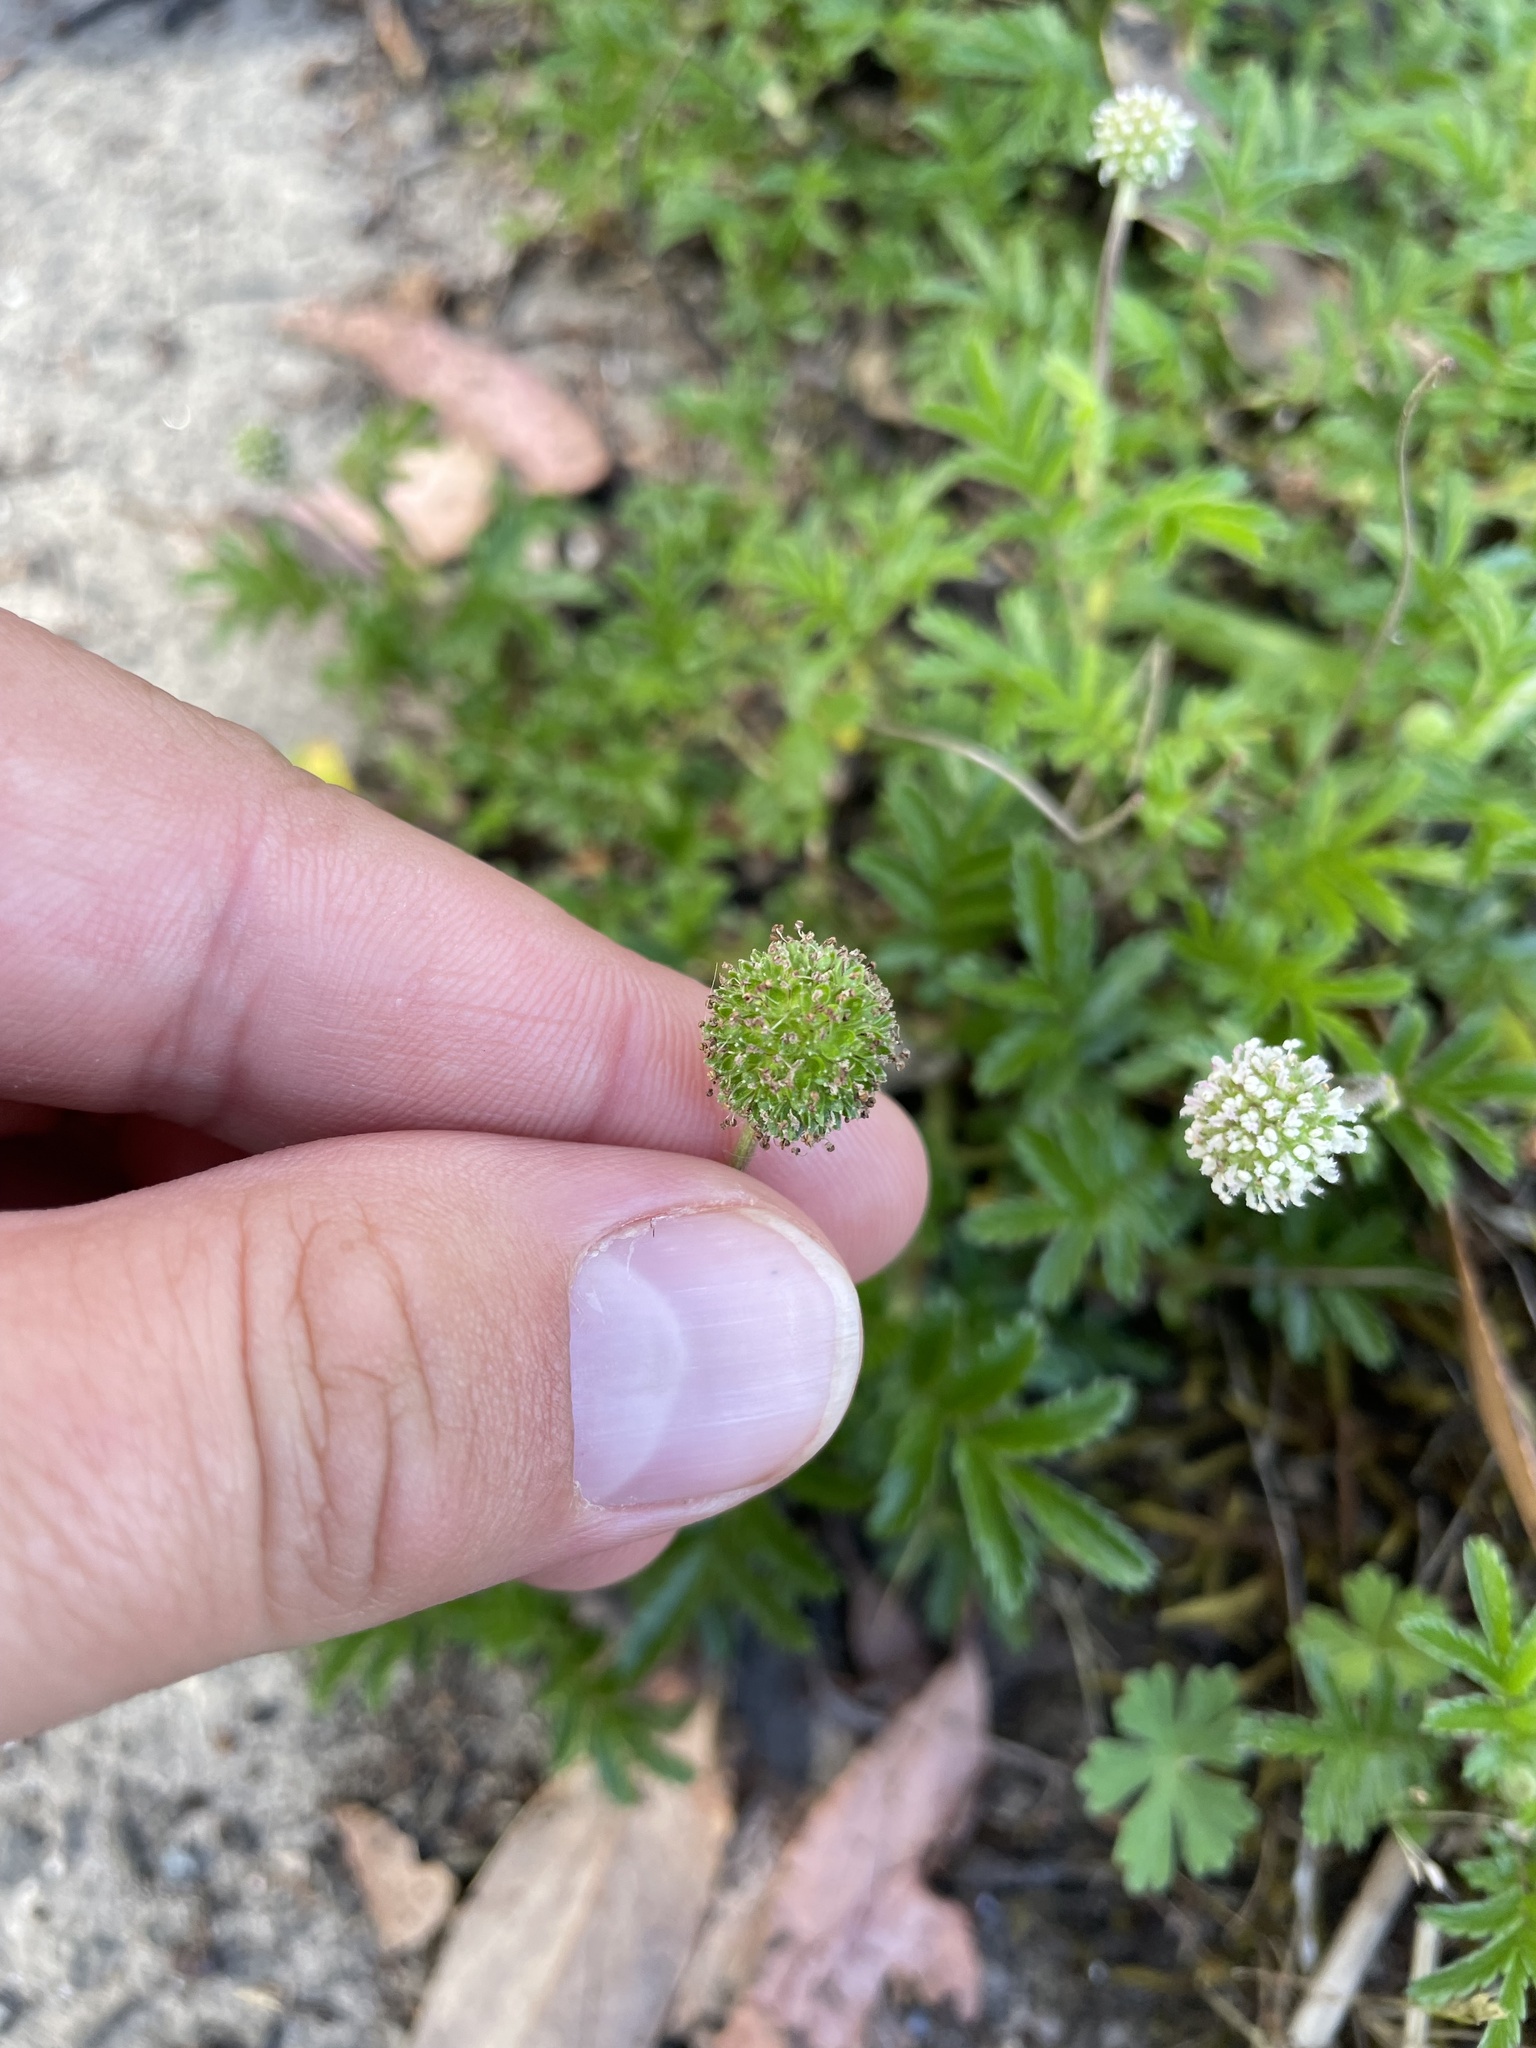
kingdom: Plantae
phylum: Tracheophyta
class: Magnoliopsida
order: Rosales
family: Rosaceae
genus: Acaena
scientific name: Acaena novae-zelandiae
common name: Pirri-pirri-bur
